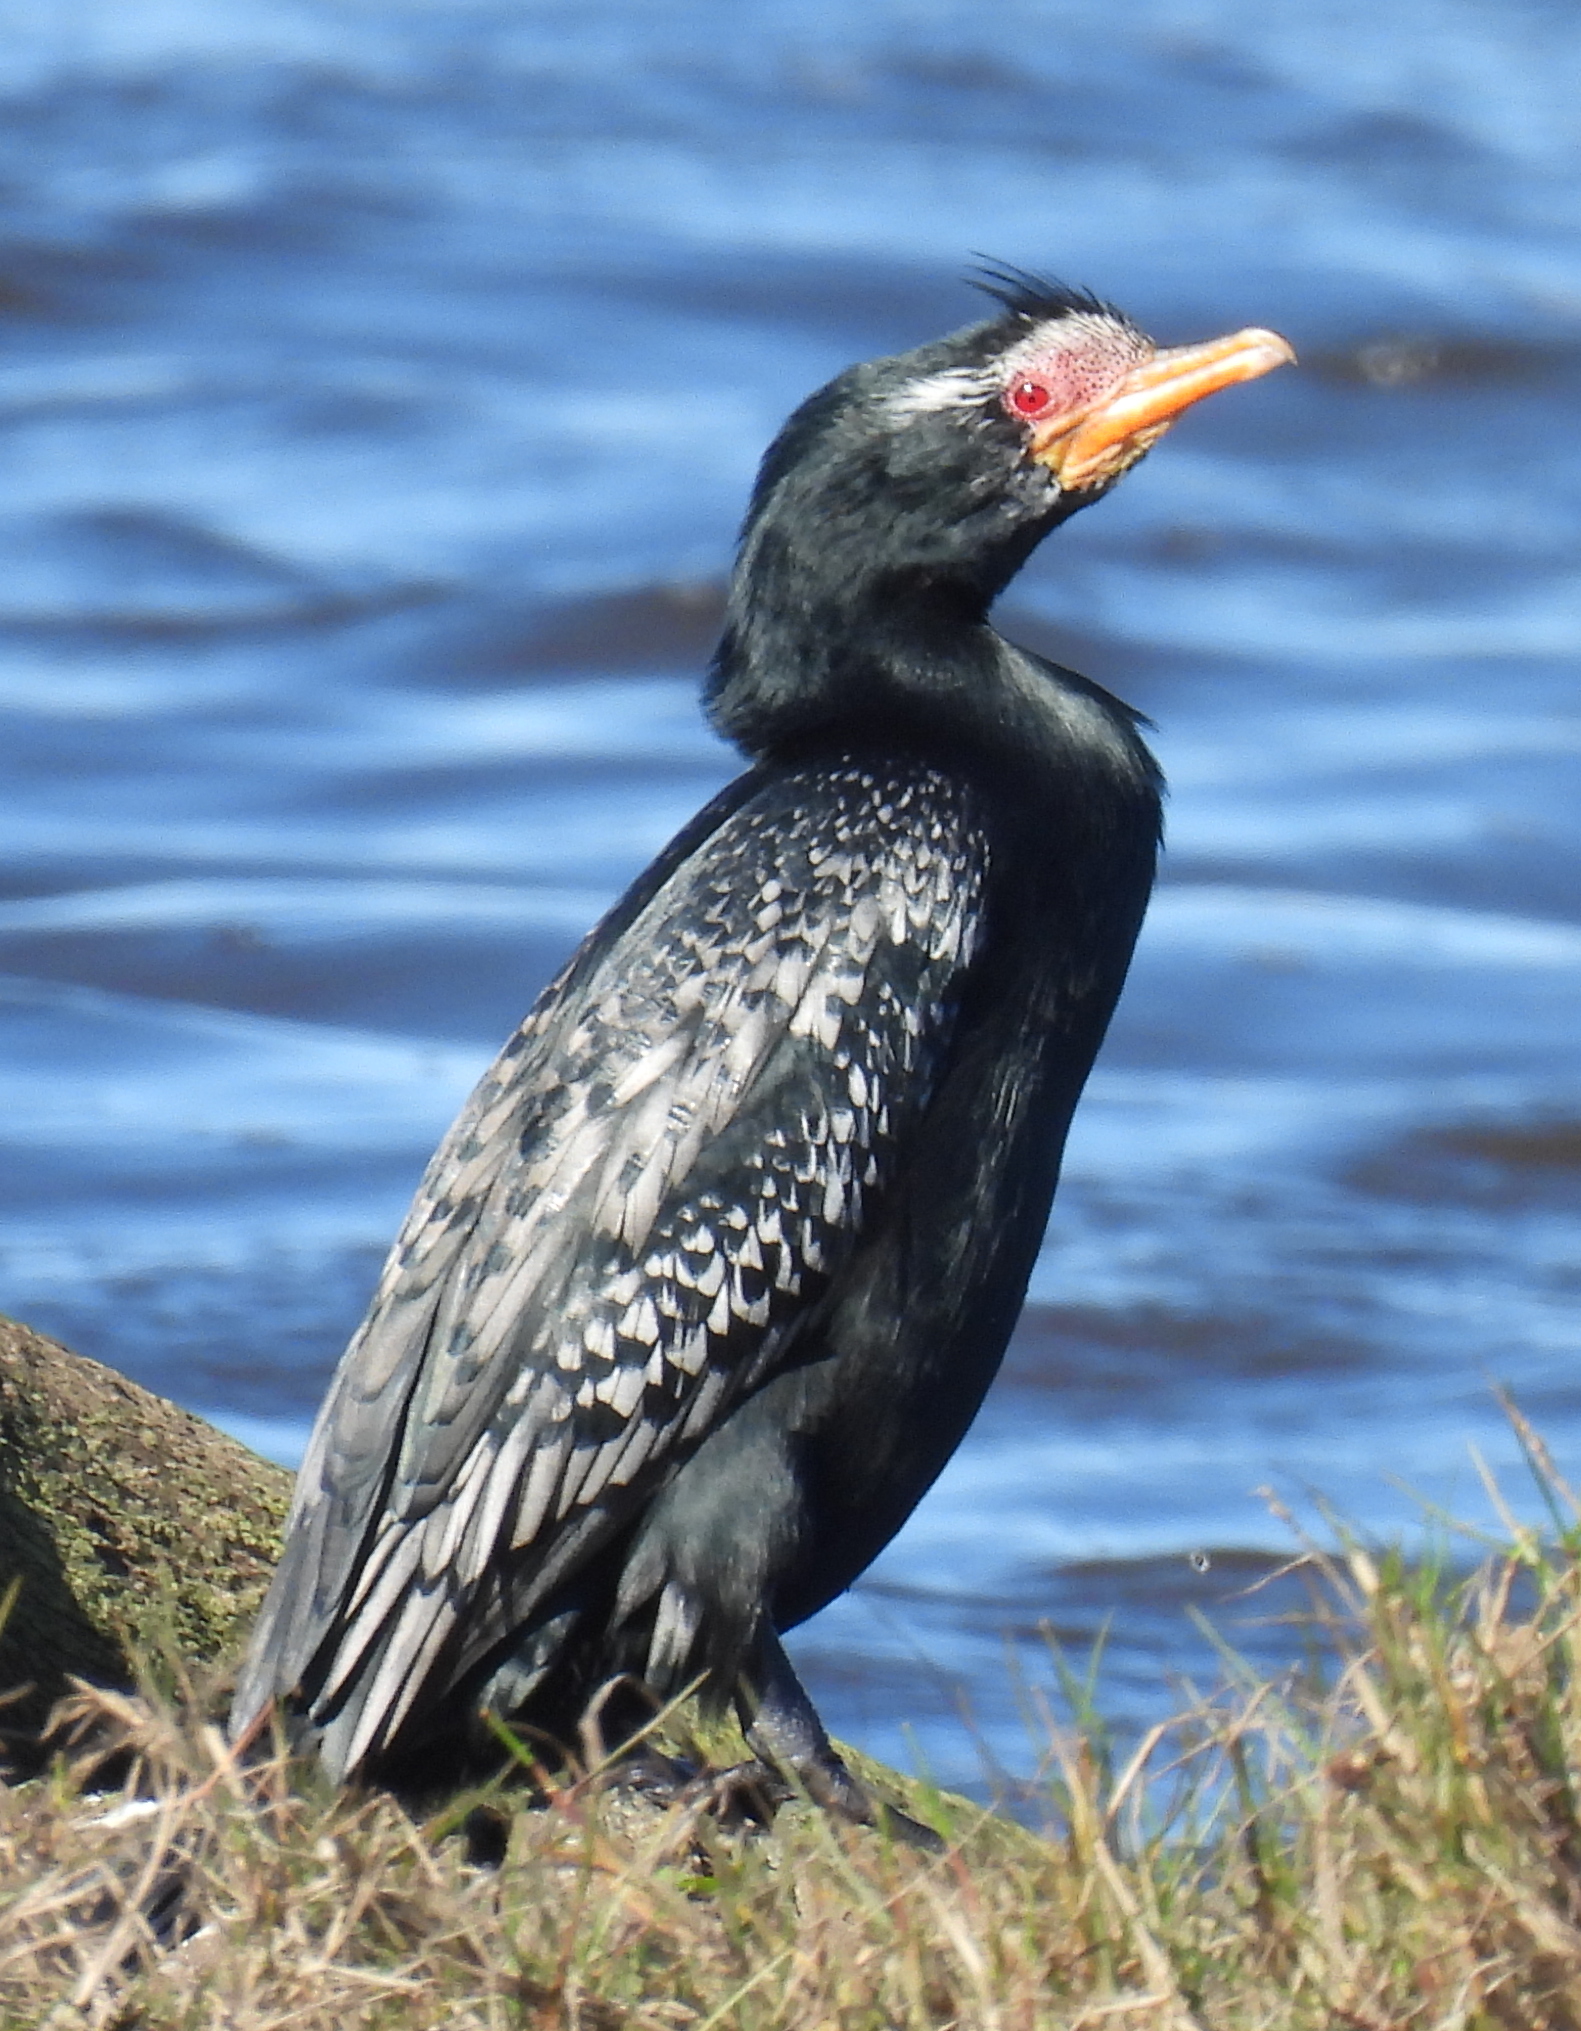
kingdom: Animalia
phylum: Chordata
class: Aves
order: Suliformes
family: Phalacrocoracidae
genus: Microcarbo
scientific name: Microcarbo africanus
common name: Long-tailed cormorant
